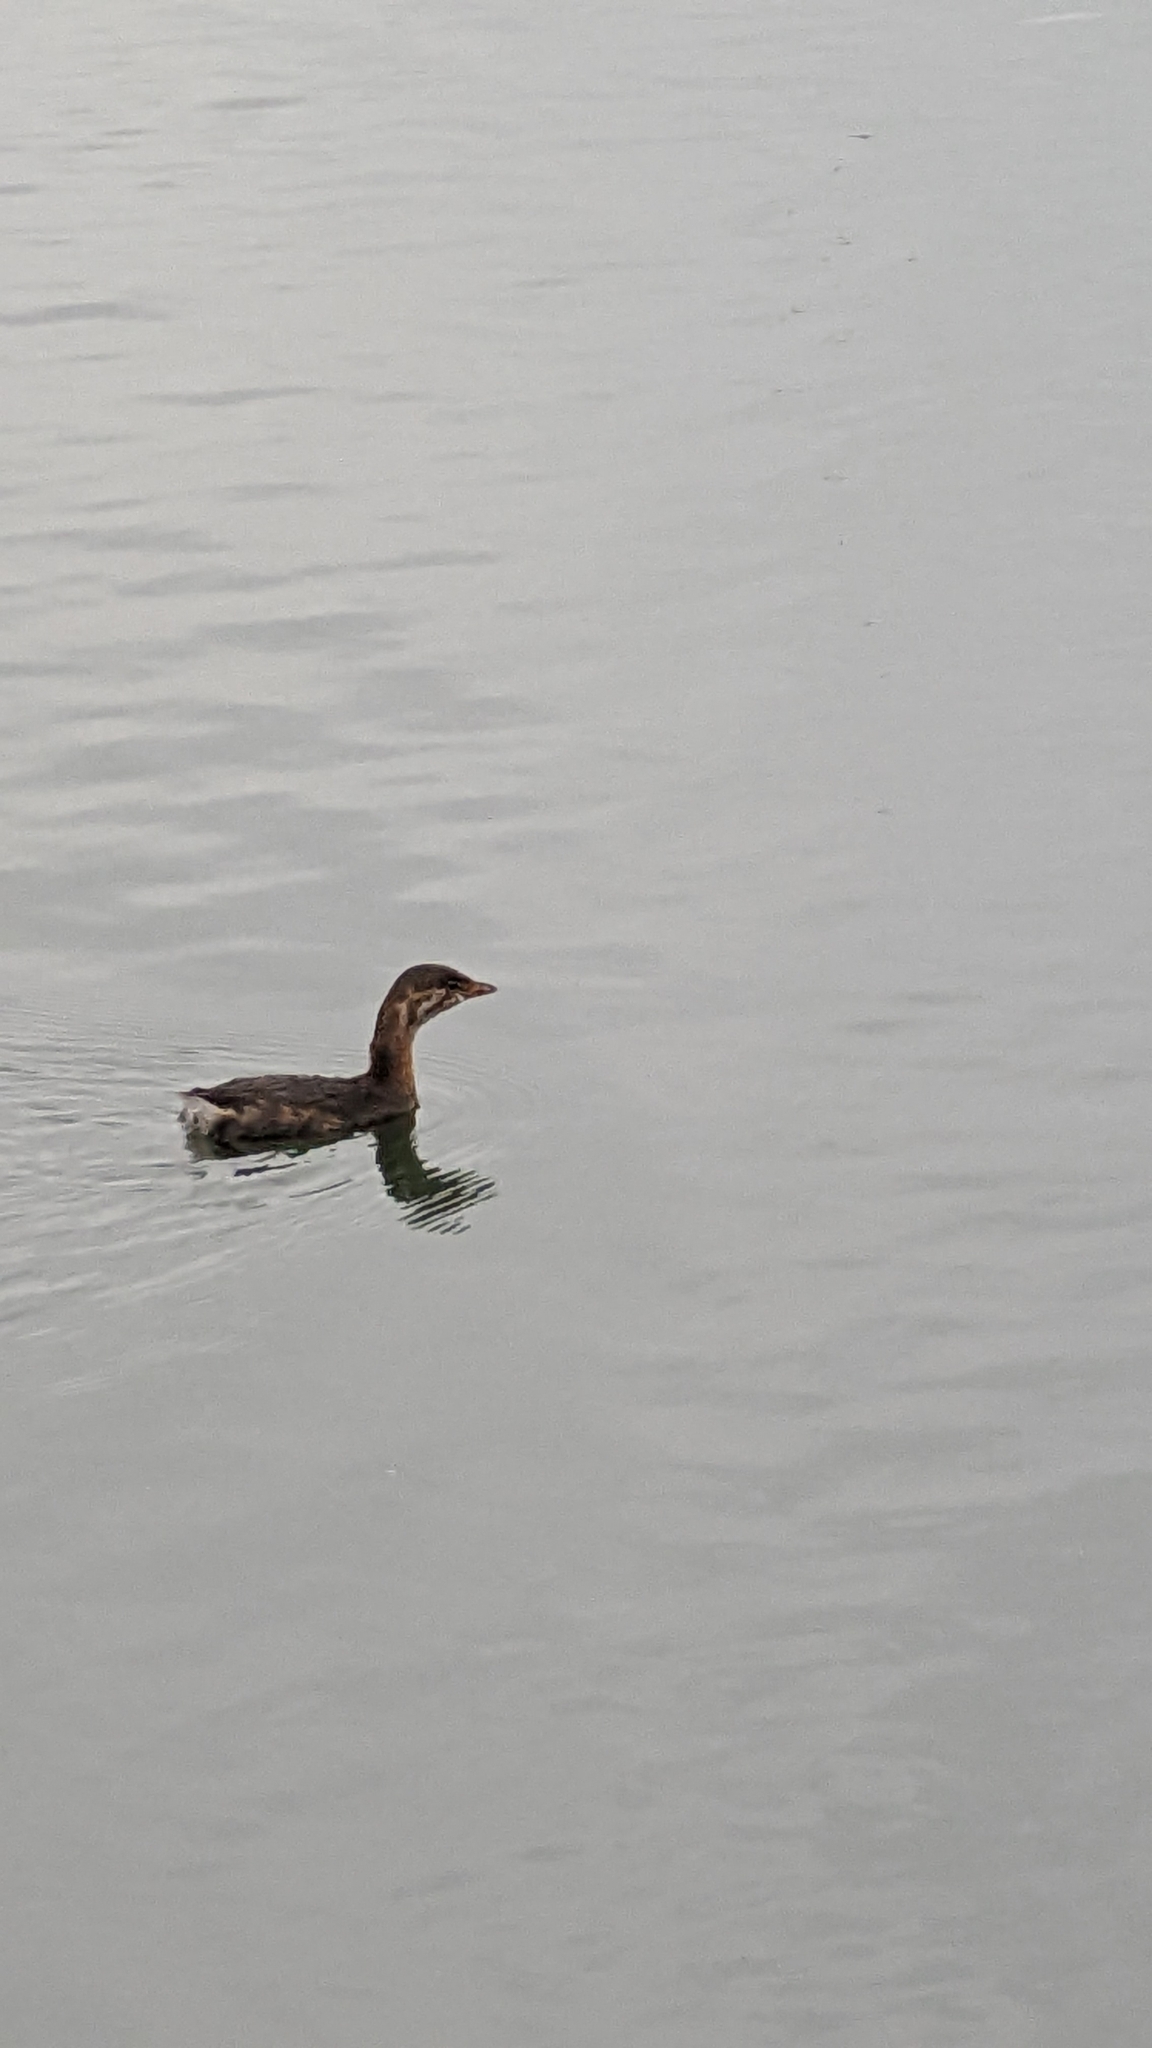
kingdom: Animalia
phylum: Chordata
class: Aves
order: Podicipediformes
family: Podicipedidae
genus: Podilymbus
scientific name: Podilymbus podiceps
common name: Pied-billed grebe
